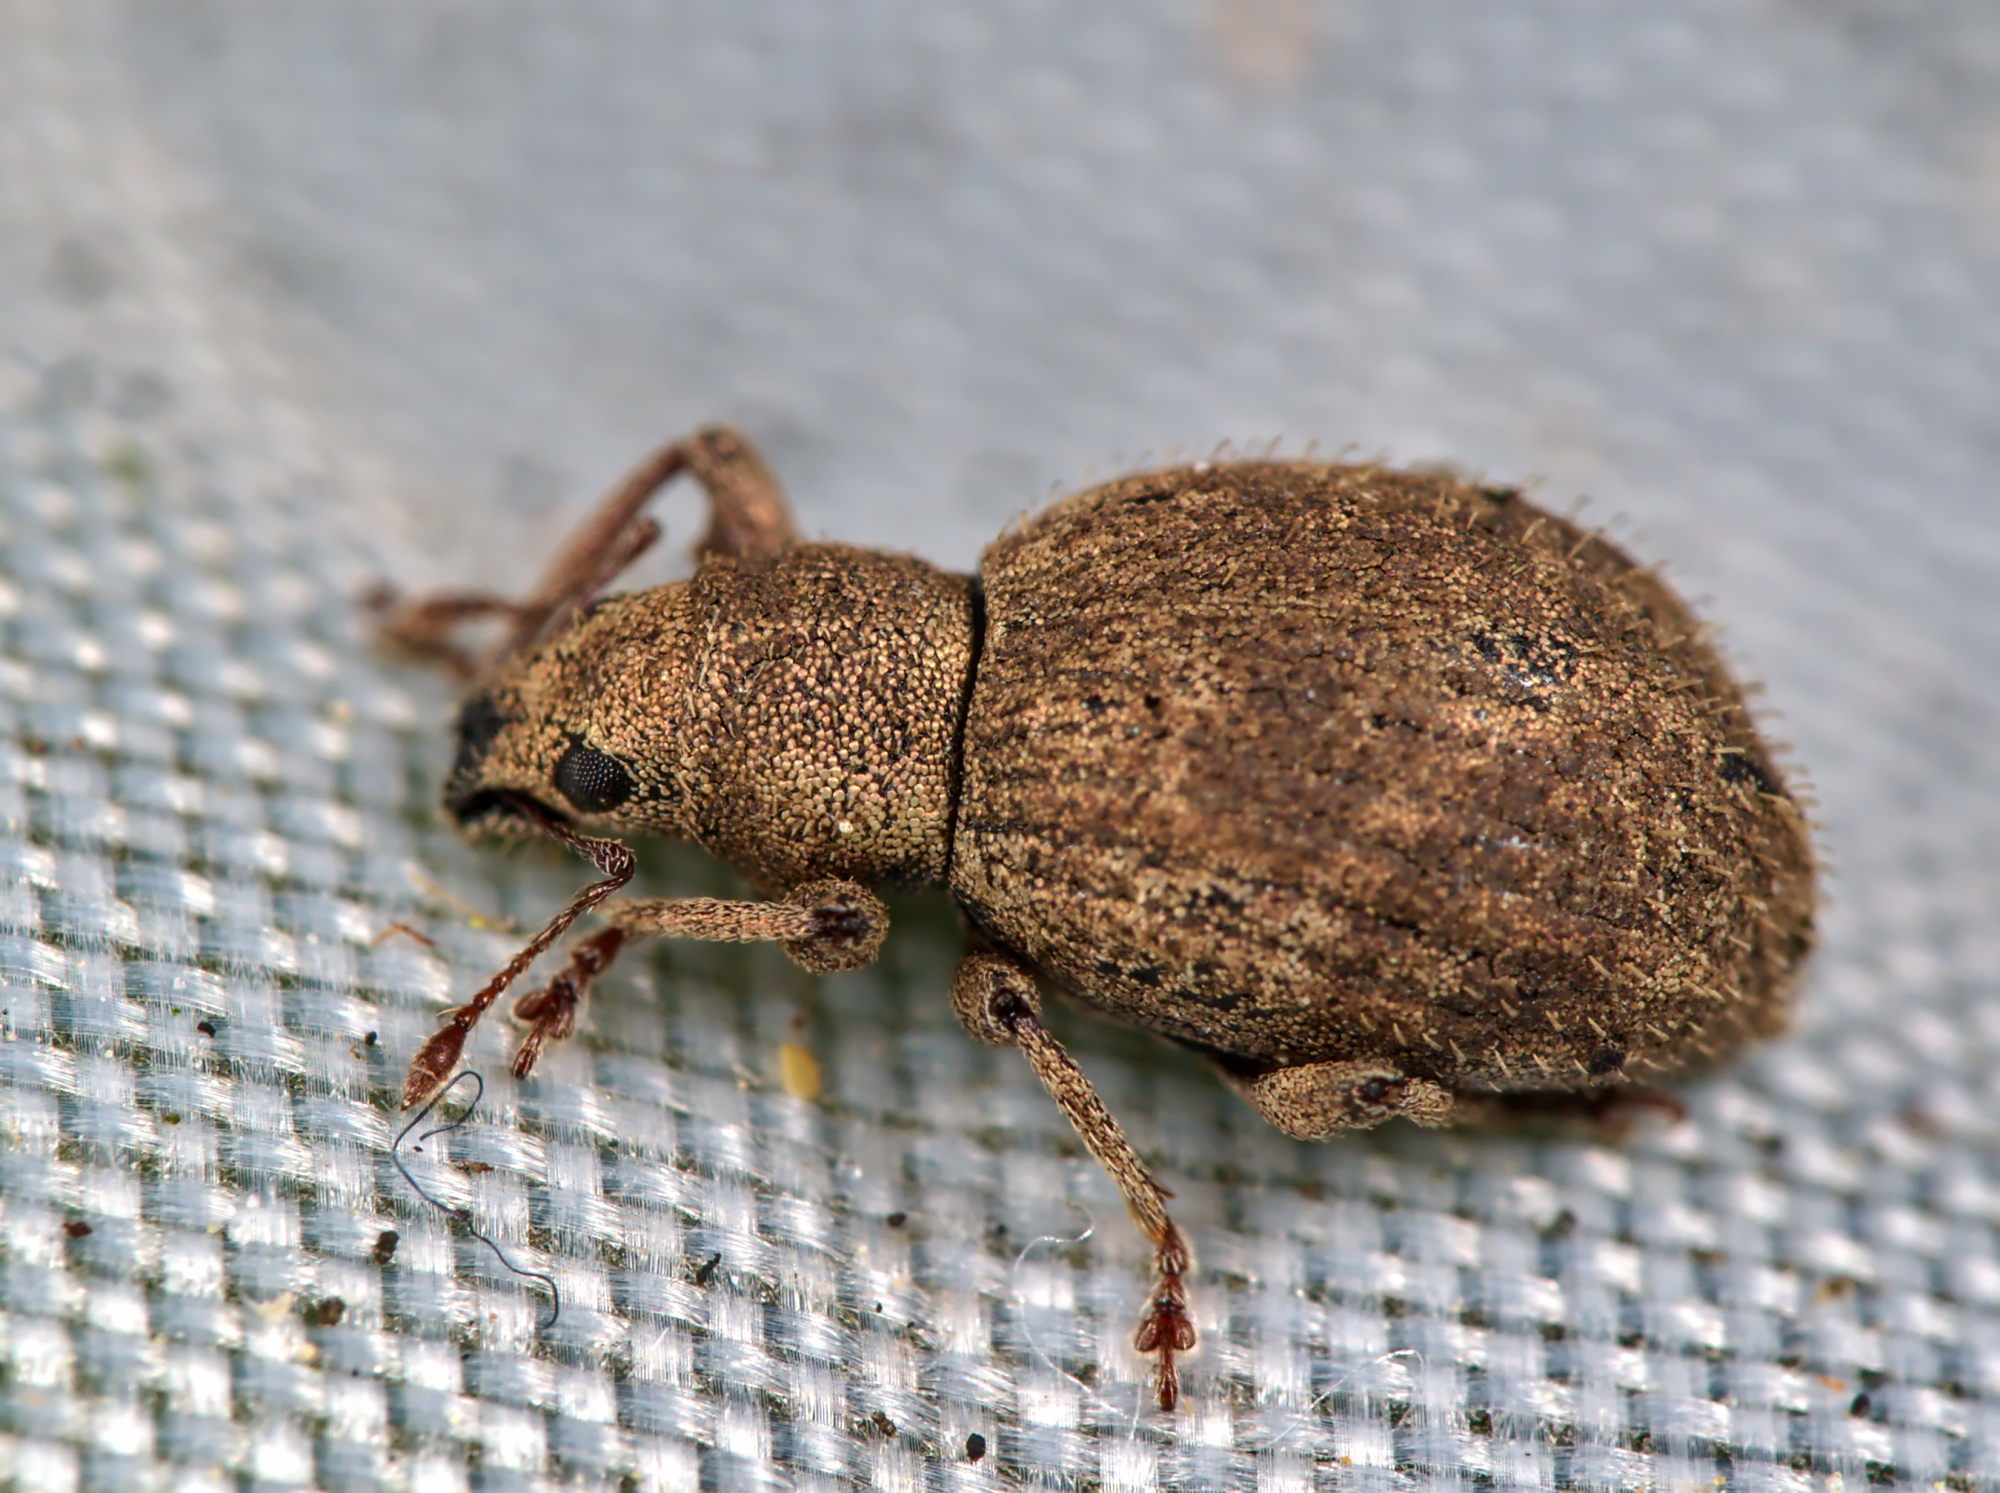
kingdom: Animalia
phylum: Arthropoda
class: Insecta
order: Coleoptera
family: Curculionidae
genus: Sciaphilus
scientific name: Sciaphilus asperatus
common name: Weevil
